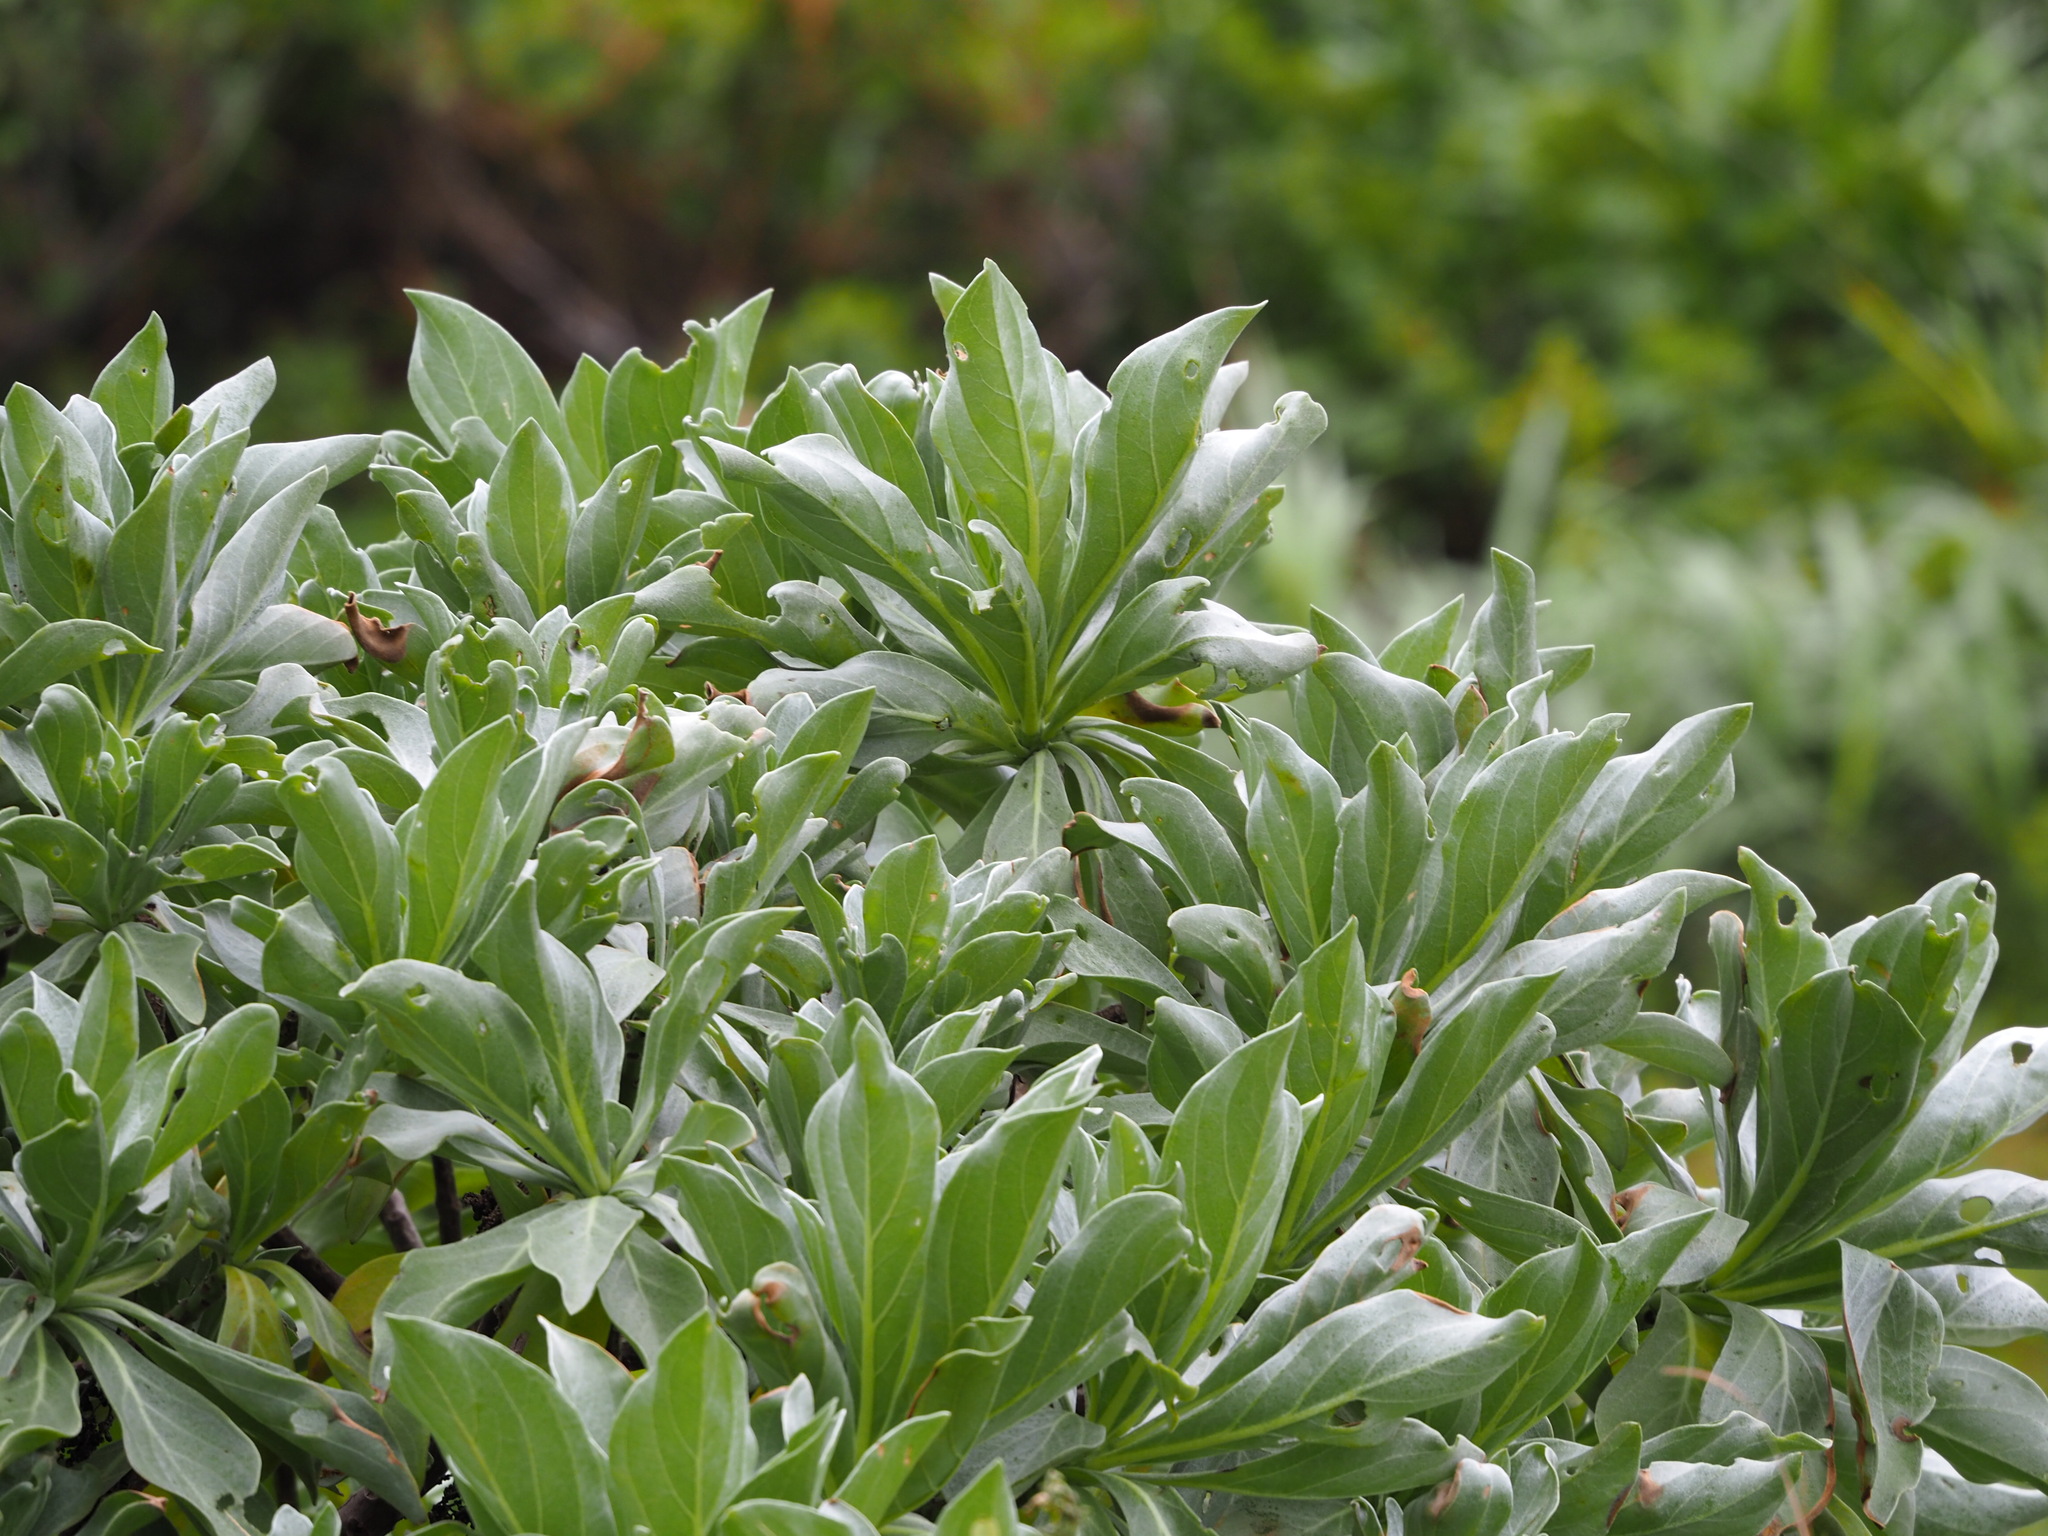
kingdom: Plantae
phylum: Tracheophyta
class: Magnoliopsida
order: Boraginales
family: Heliotropiaceae
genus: Heliotropium
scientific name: Heliotropium velutinum
